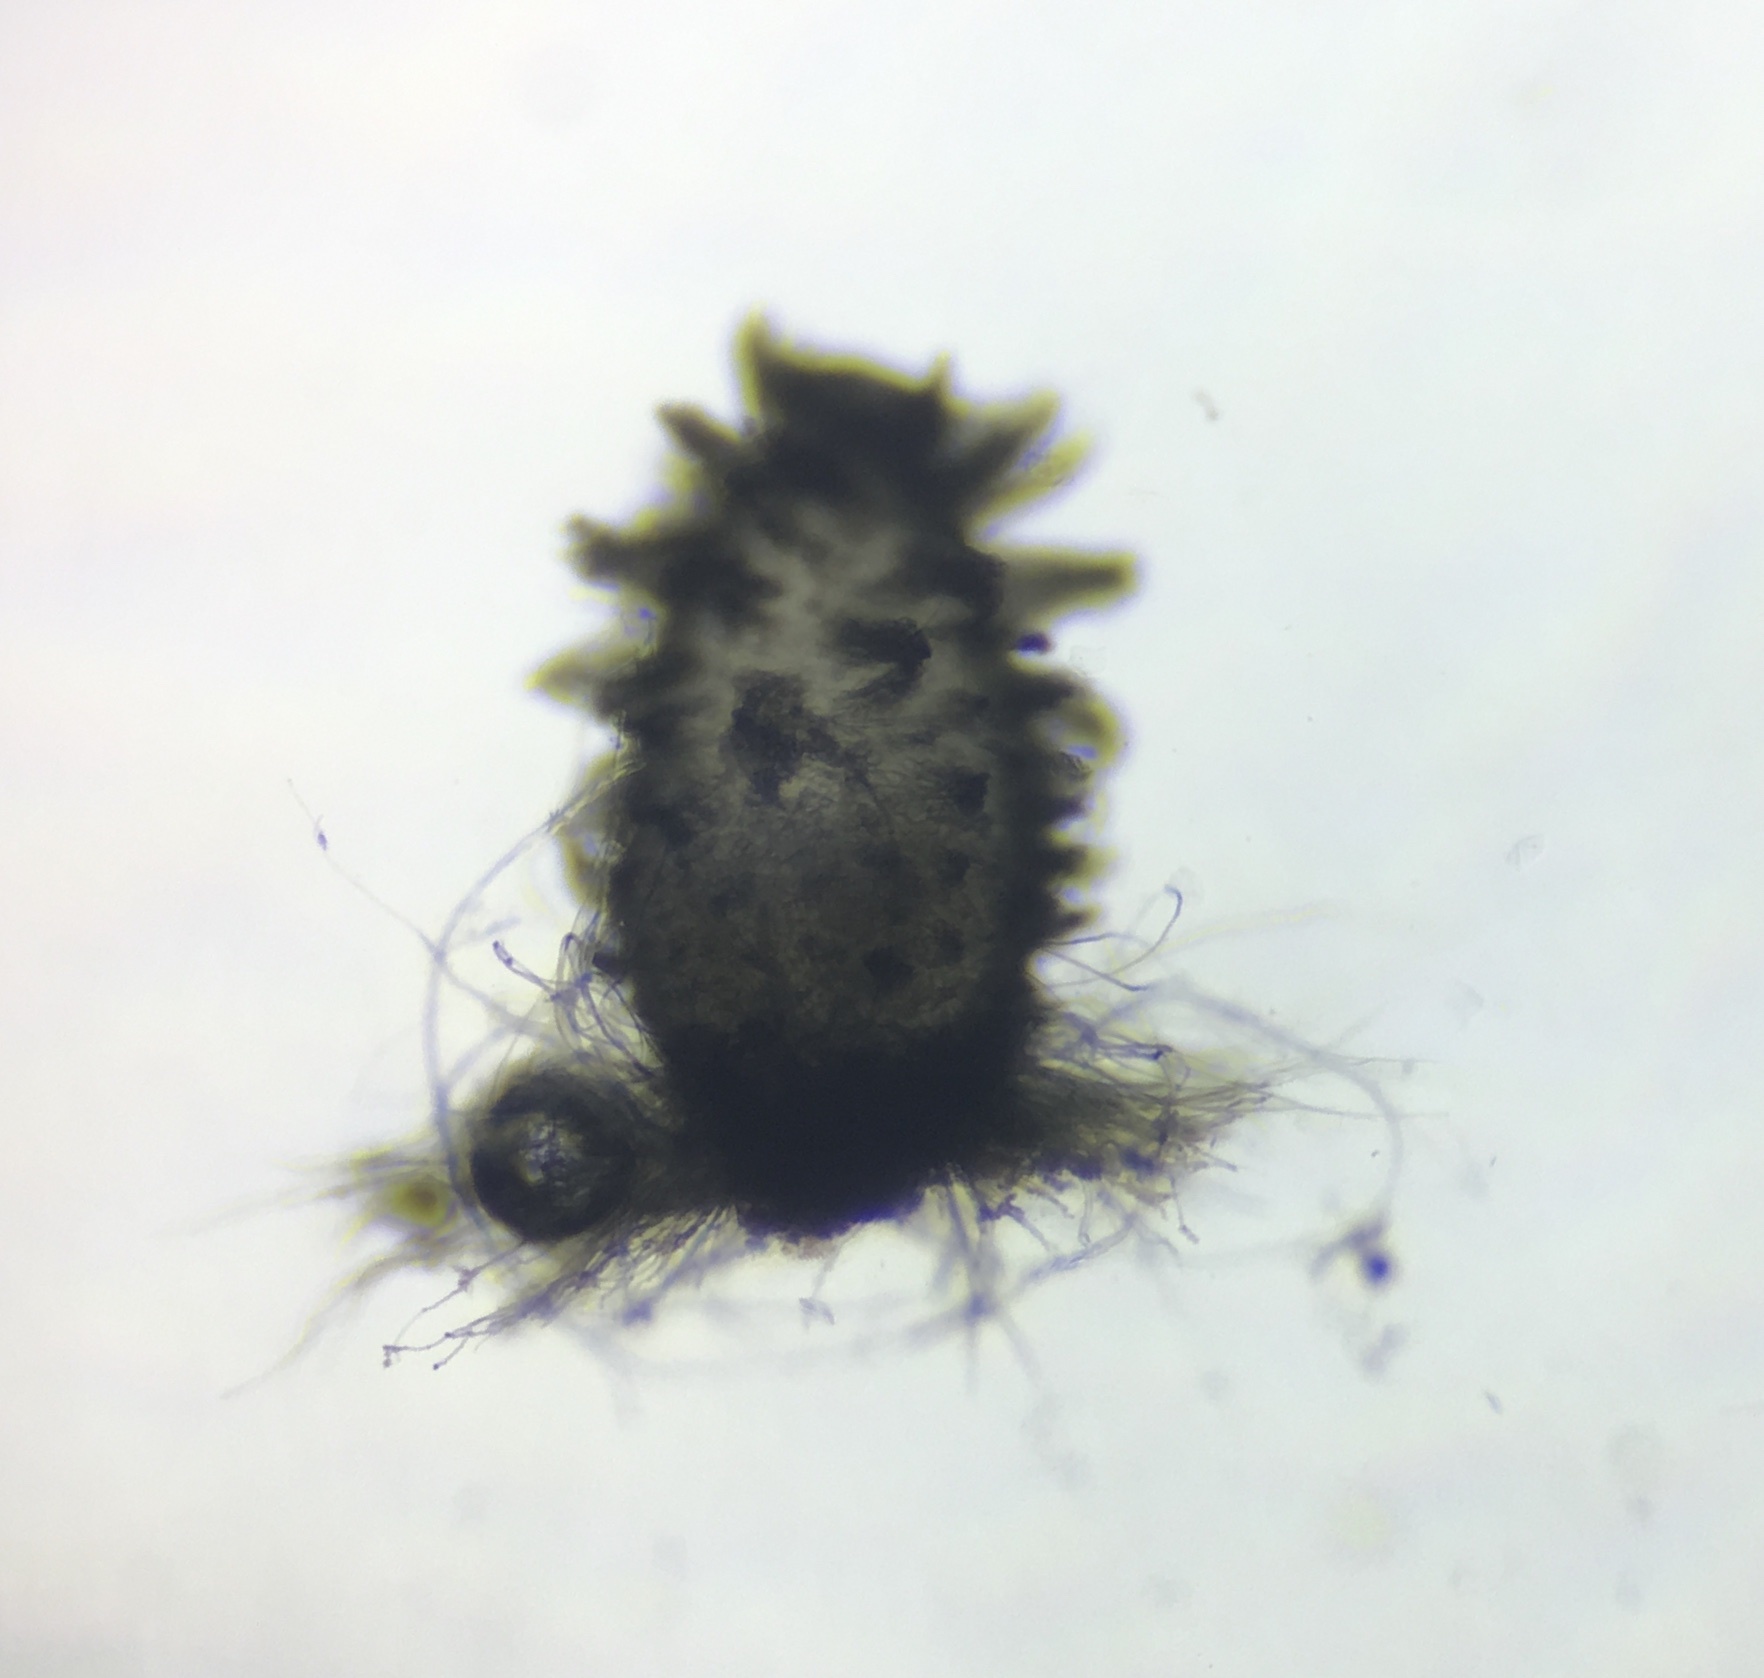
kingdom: Fungi
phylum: Ascomycota
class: Sordariomycetes
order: Sordariales
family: Lasiosphaeriaceae
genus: Schizothecium
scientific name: Schizothecium vesticola
